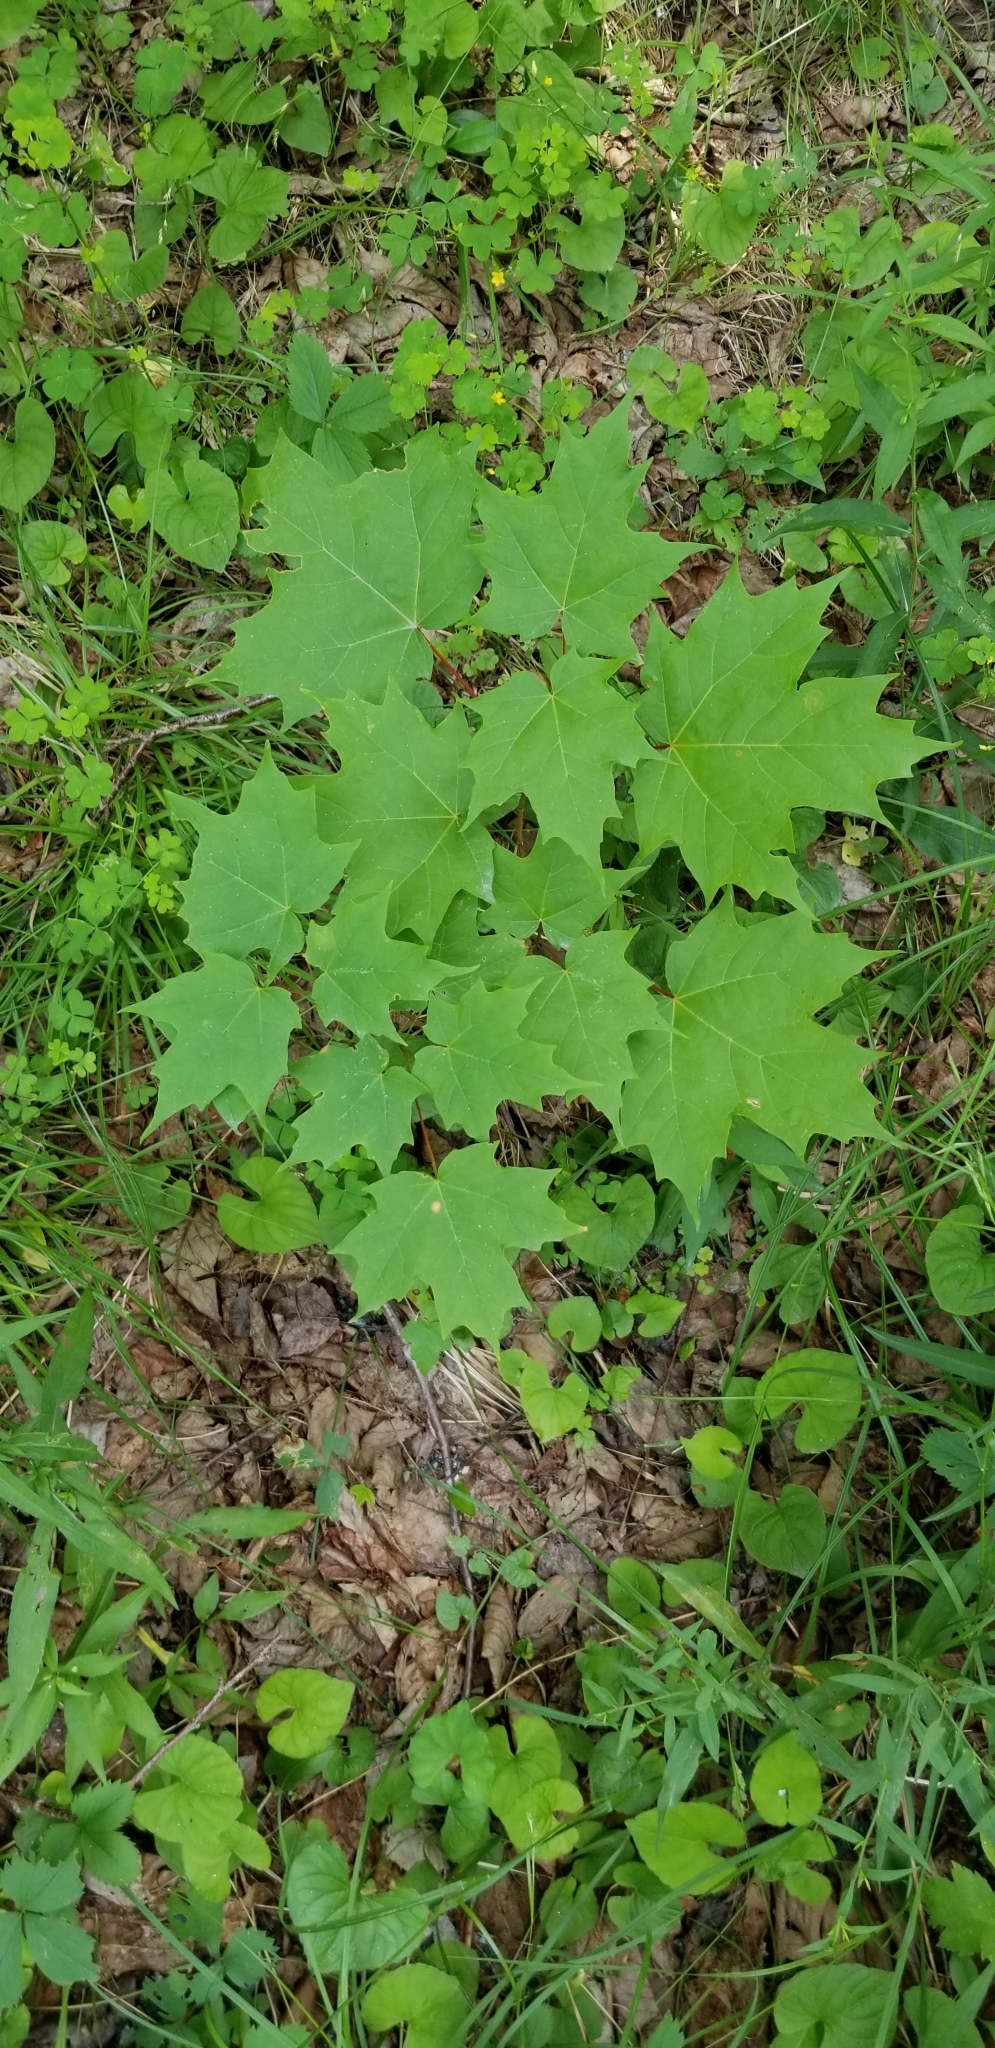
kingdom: Plantae
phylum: Tracheophyta
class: Magnoliopsida
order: Sapindales
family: Sapindaceae
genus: Acer
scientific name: Acer saccharum
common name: Sugar maple
